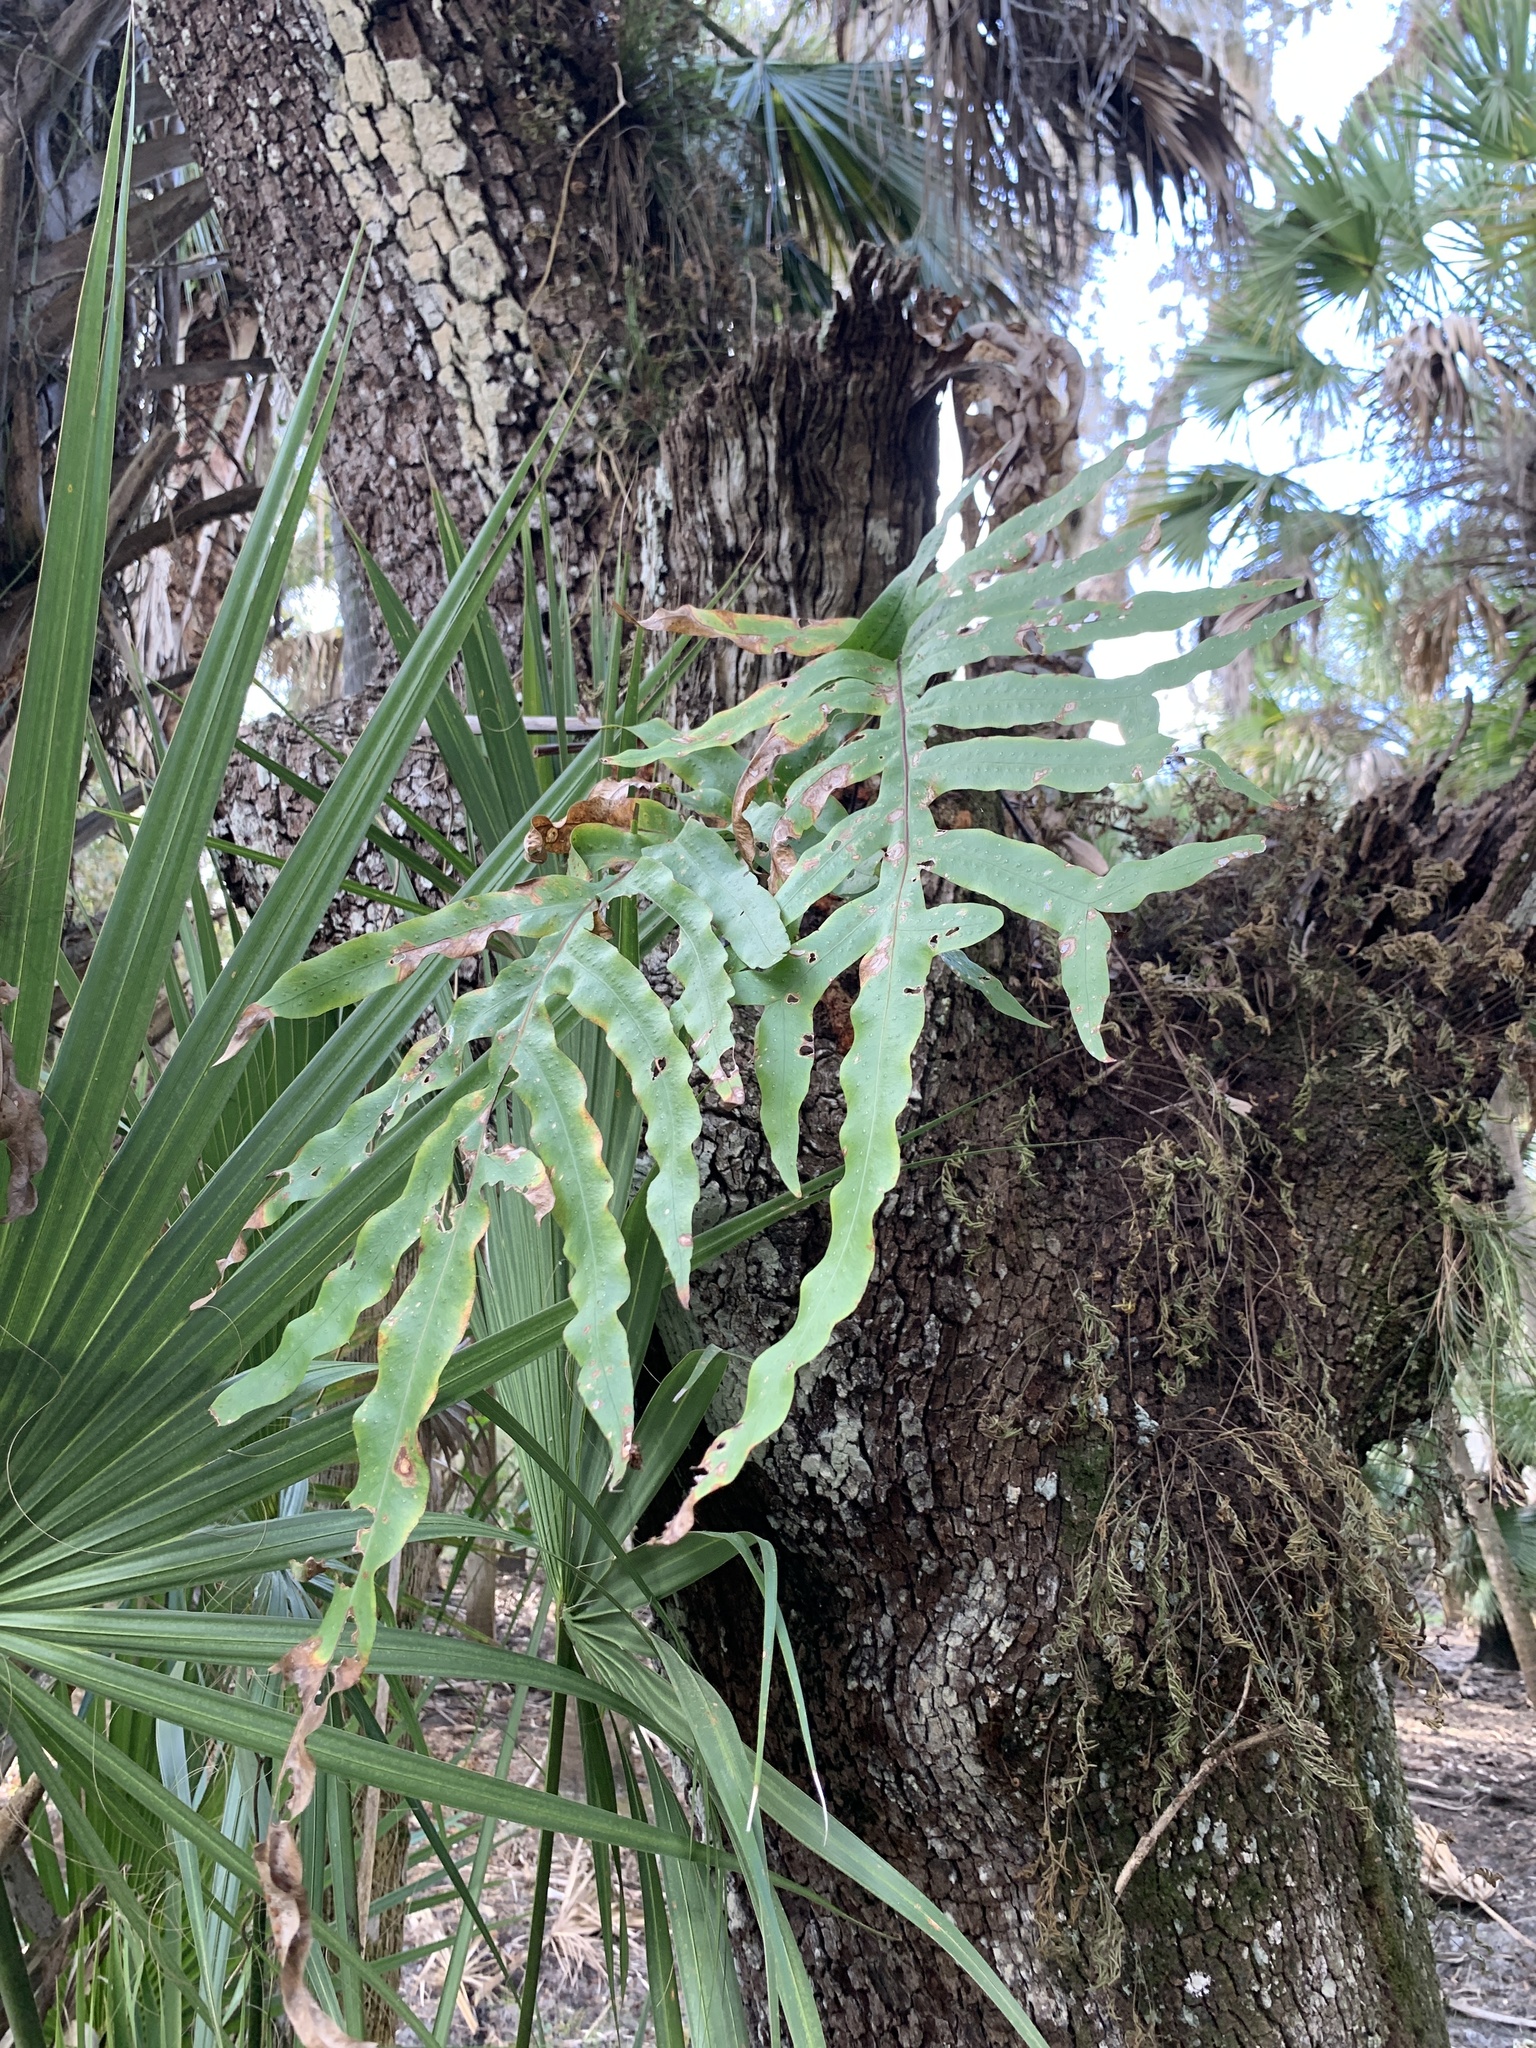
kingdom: Plantae
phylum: Tracheophyta
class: Polypodiopsida
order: Polypodiales
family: Polypodiaceae
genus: Phlebodium
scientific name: Phlebodium aureum
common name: Gold-foot fern
